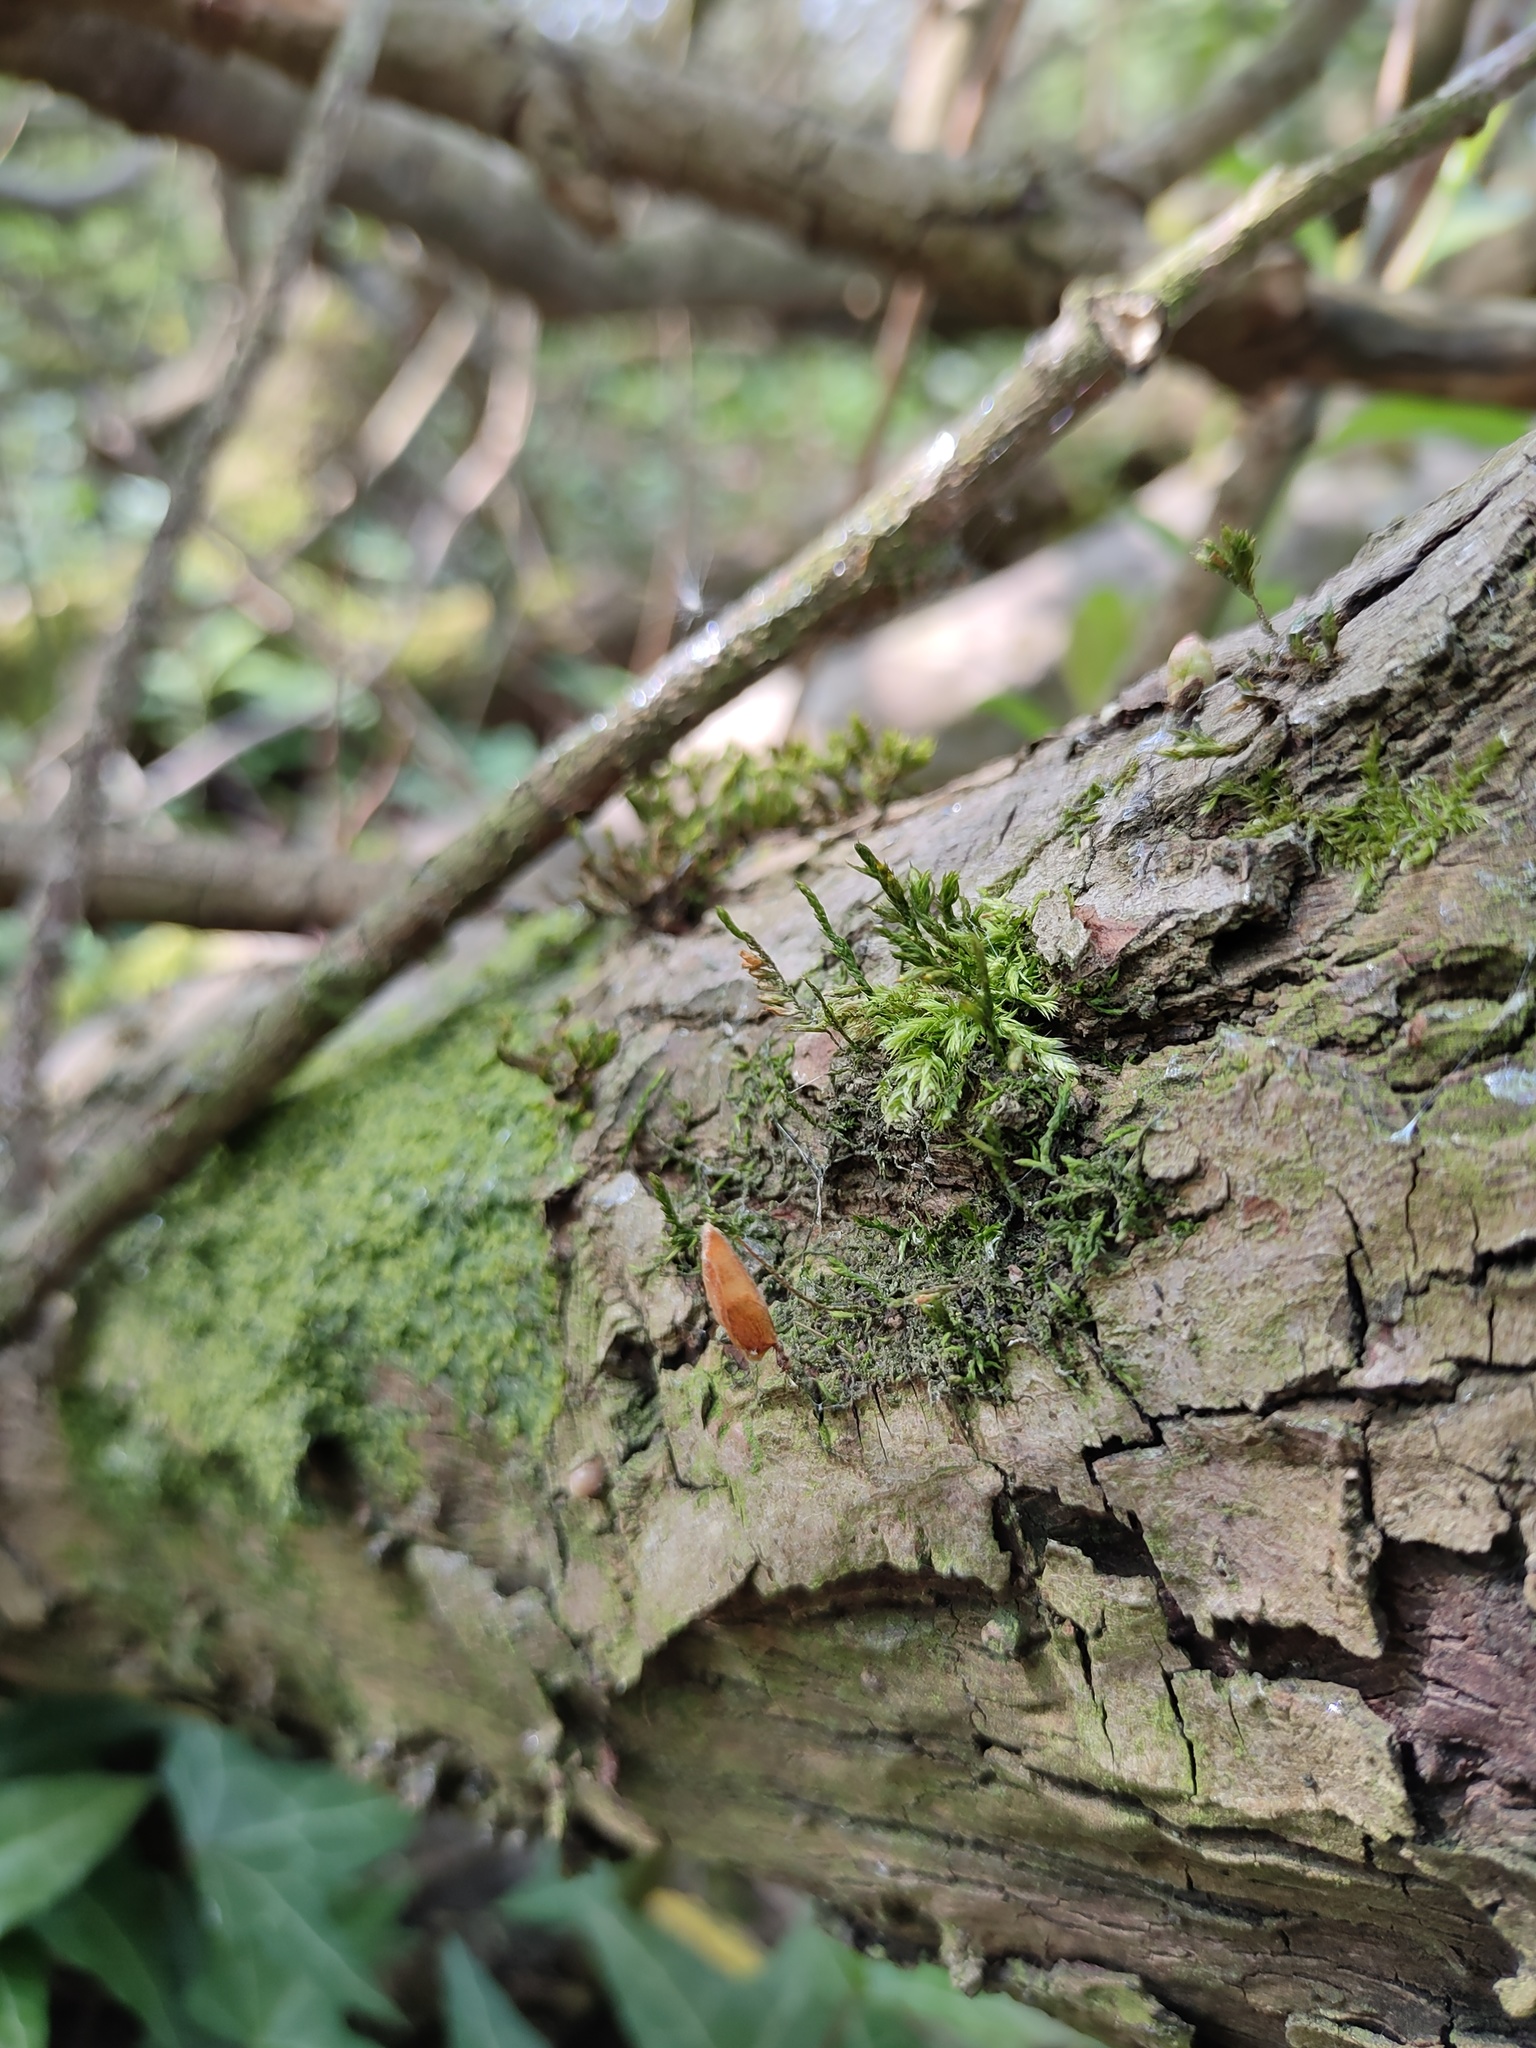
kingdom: Plantae
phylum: Bryophyta
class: Bryopsida
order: Hypnales
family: Cryphaeaceae
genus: Cryphaea
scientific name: Cryphaea heteromalla
